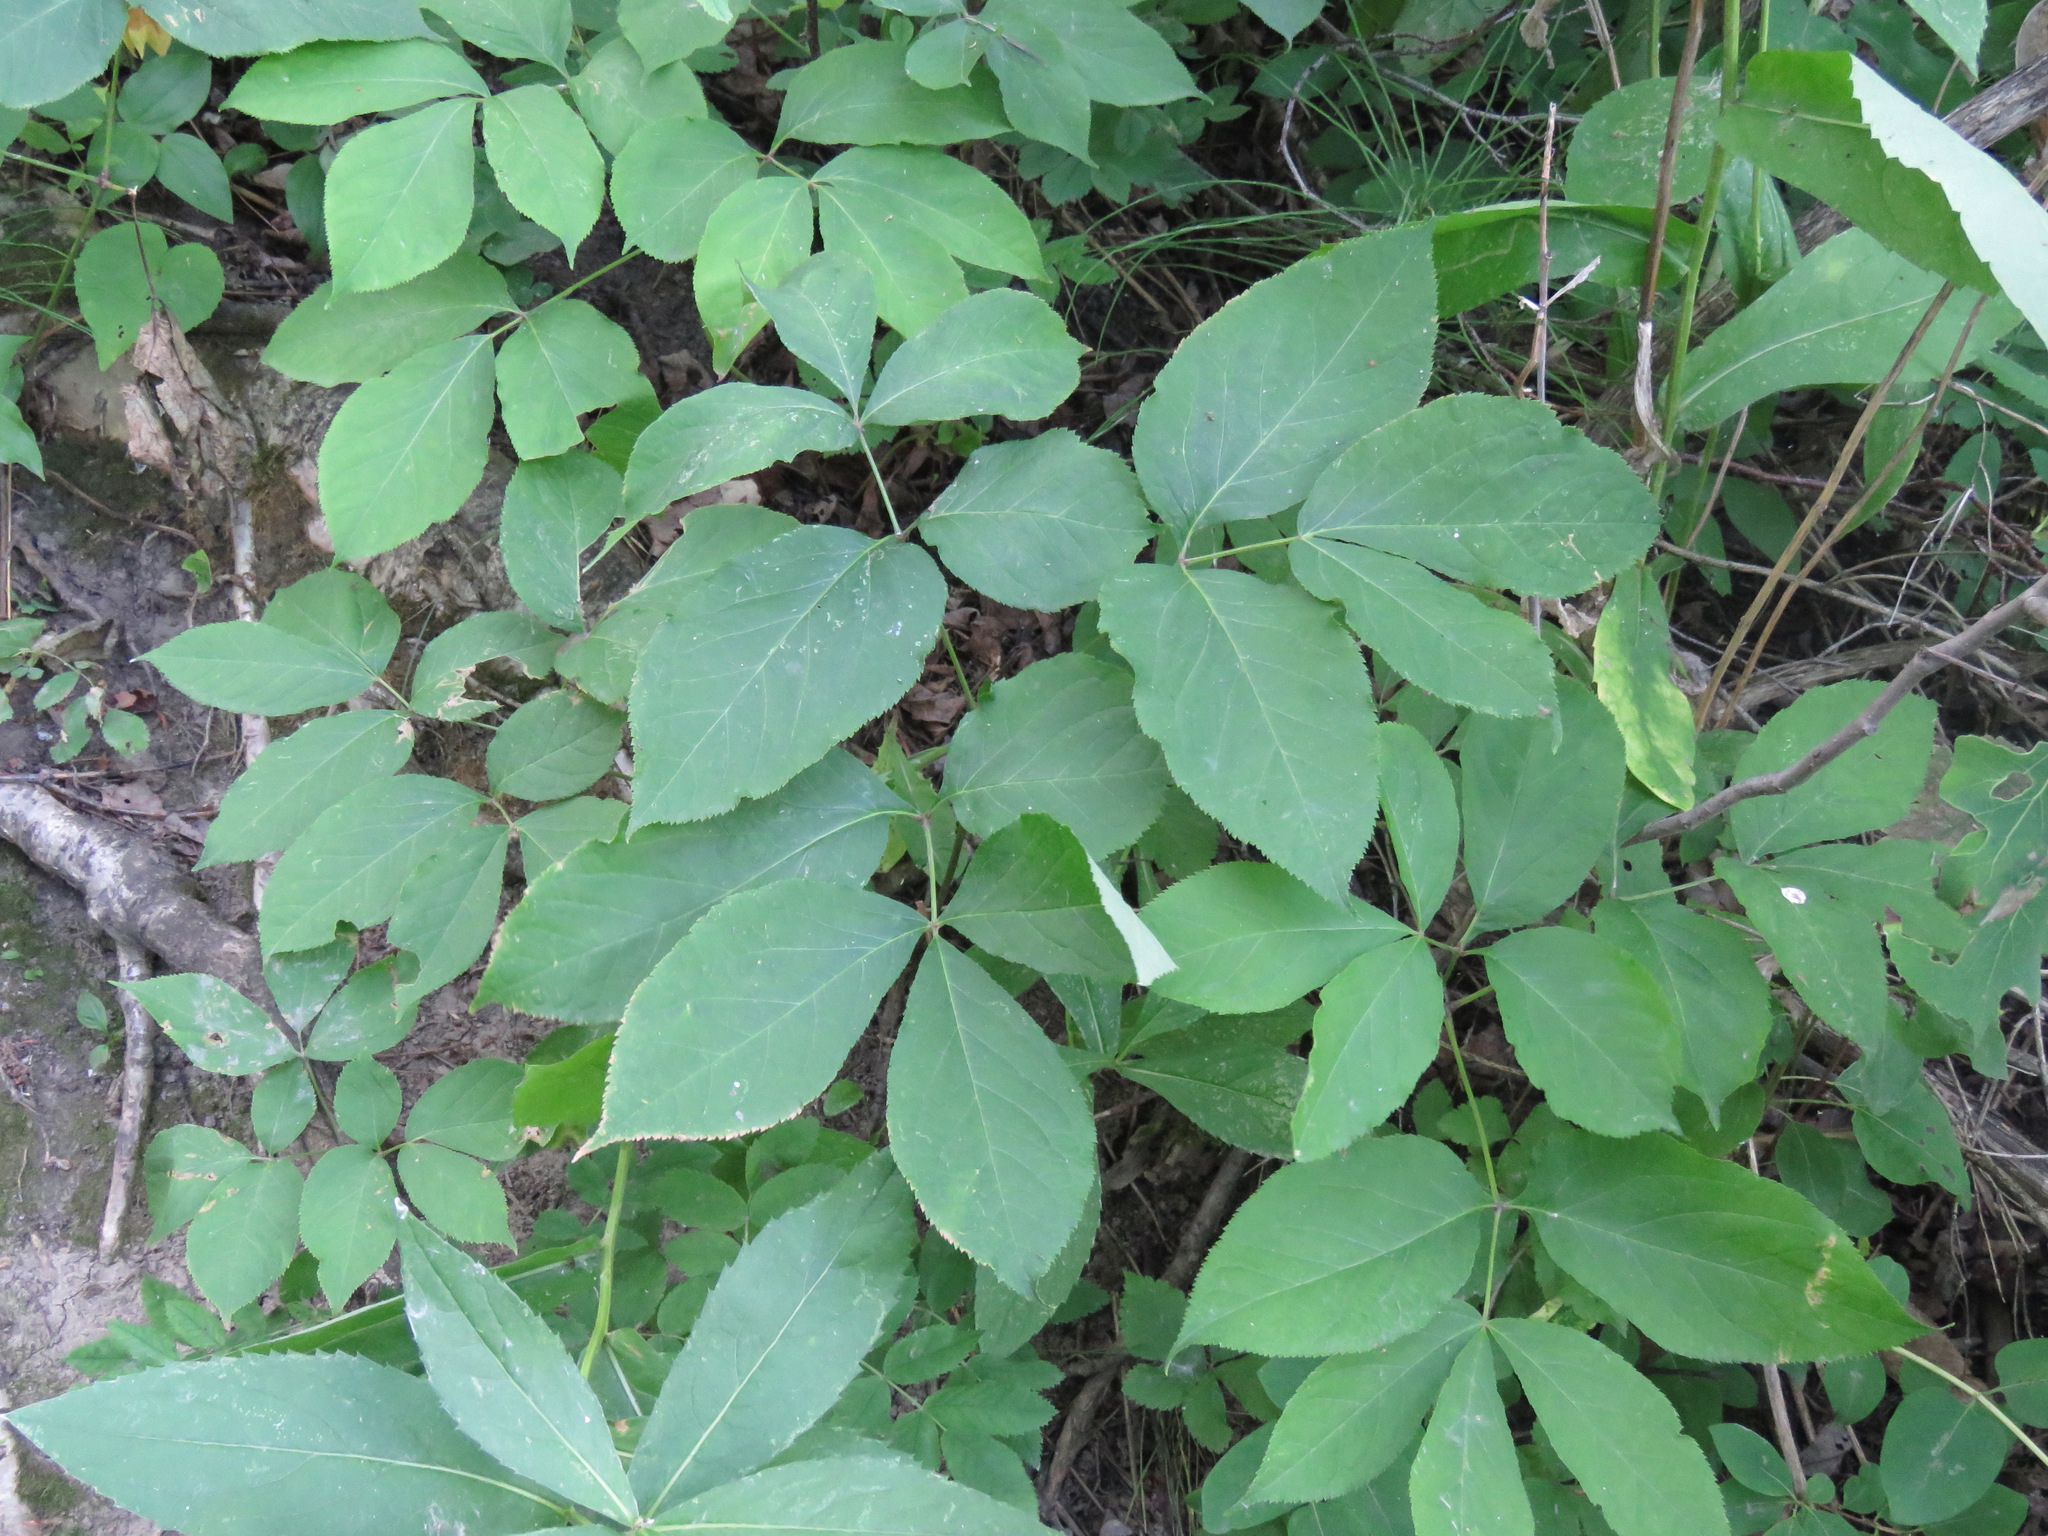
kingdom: Plantae
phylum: Tracheophyta
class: Magnoliopsida
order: Apiales
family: Araliaceae
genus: Aralia
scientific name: Aralia nudicaulis
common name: Wild sarsaparilla
